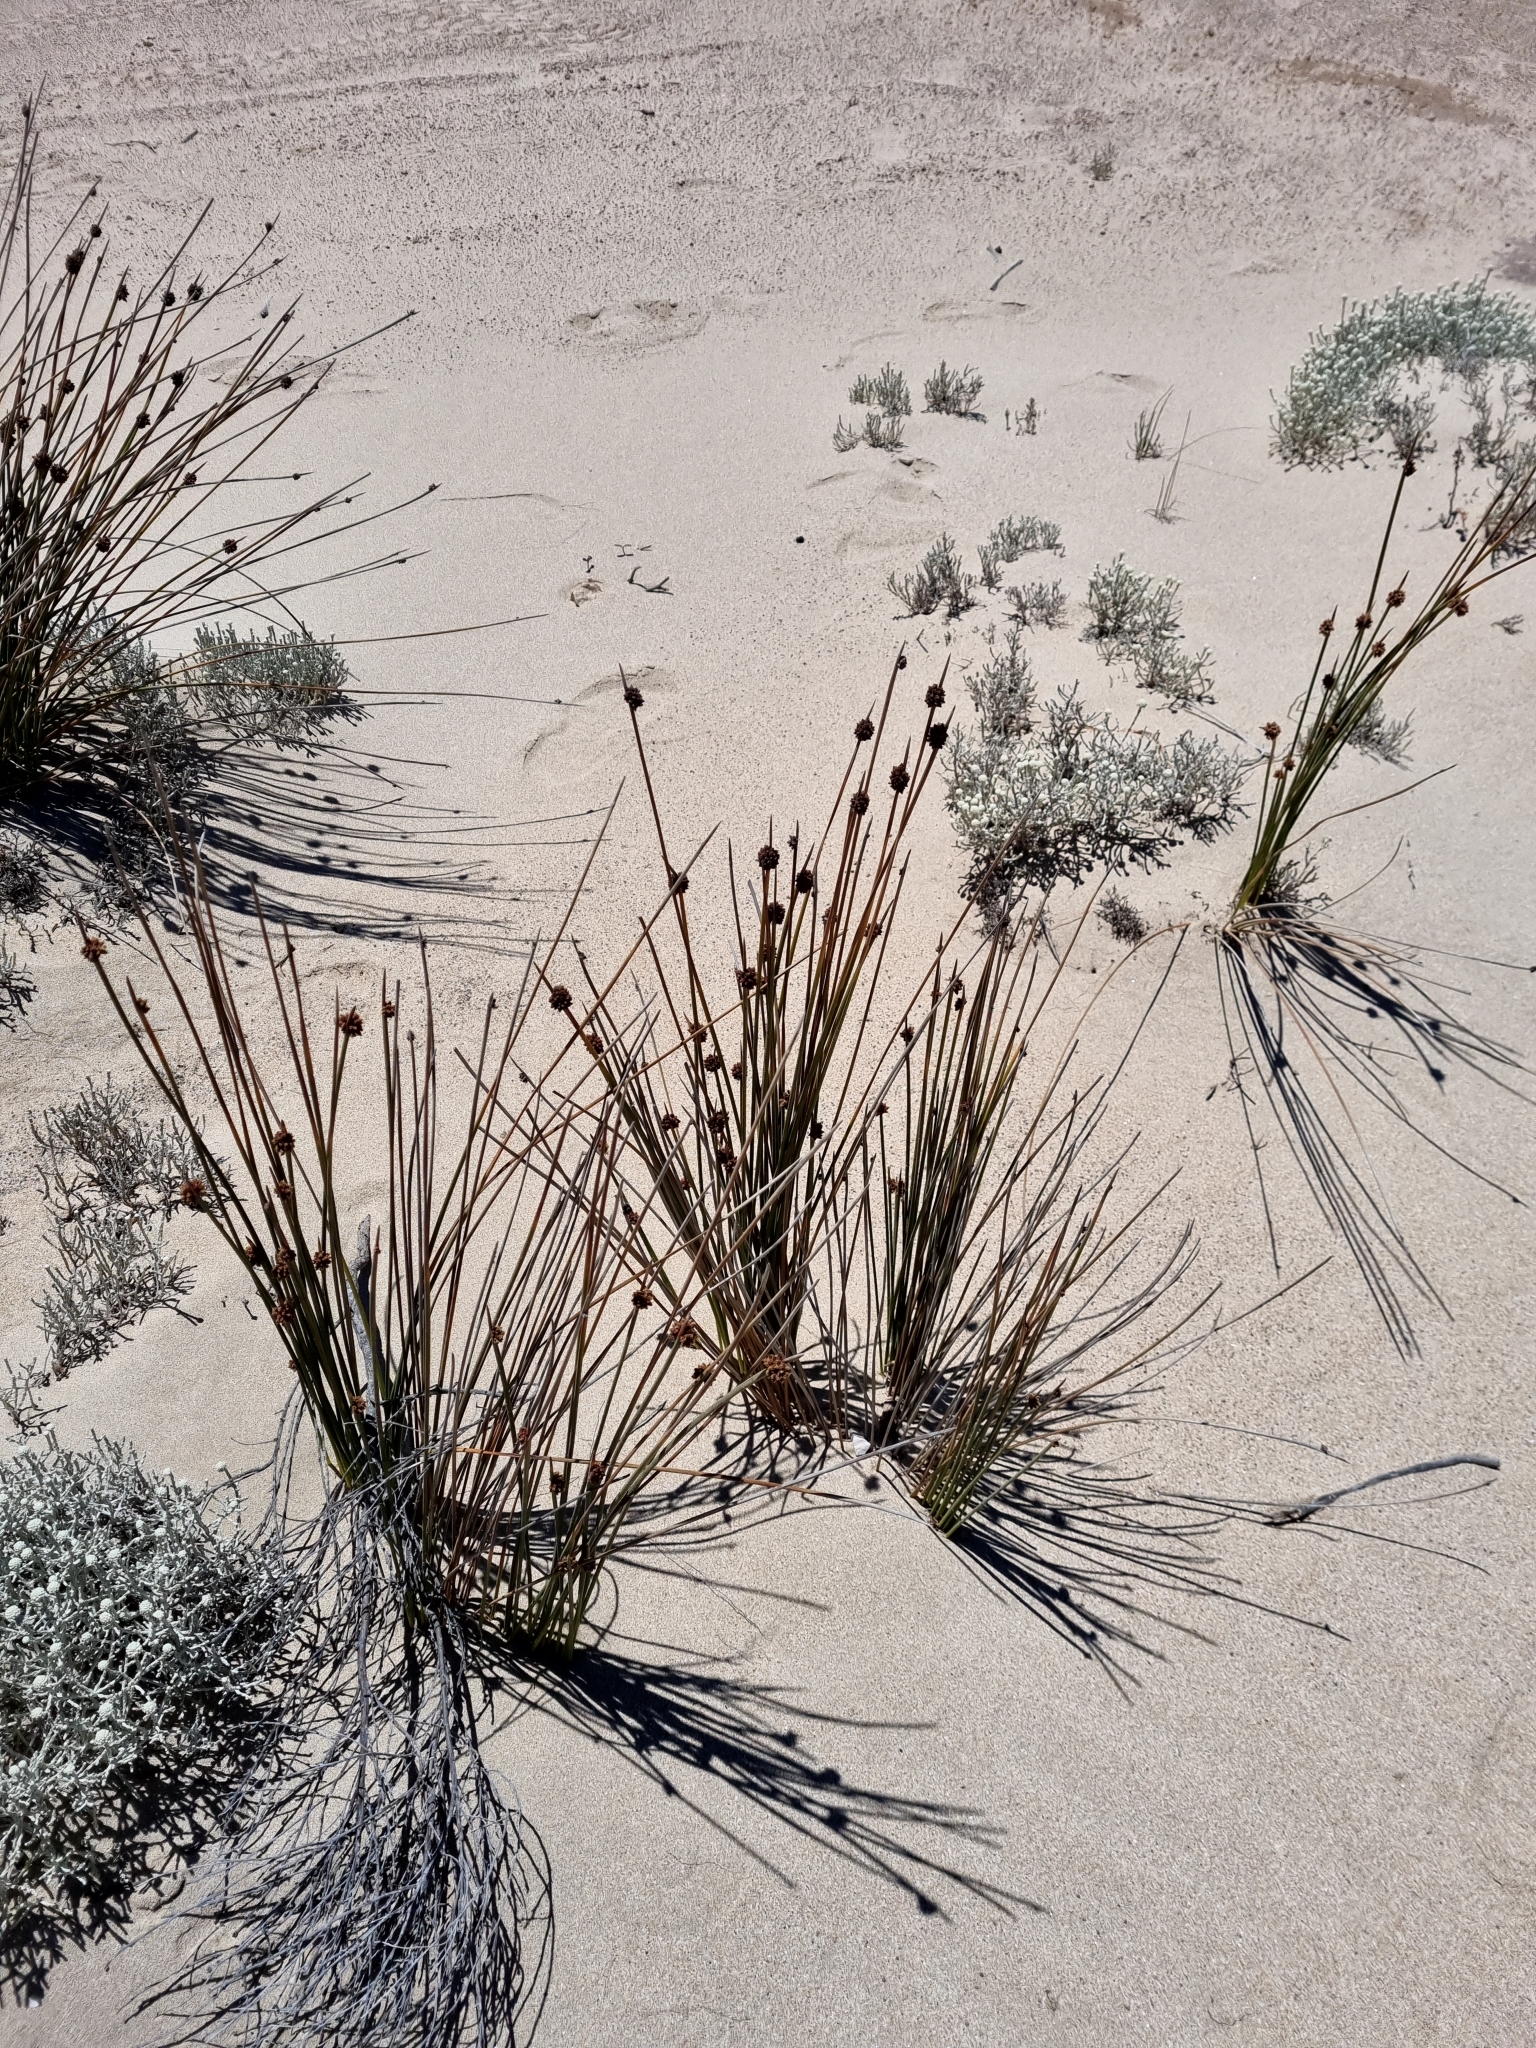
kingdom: Plantae
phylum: Tracheophyta
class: Liliopsida
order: Poales
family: Cyperaceae
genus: Ficinia
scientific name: Ficinia nodosa
